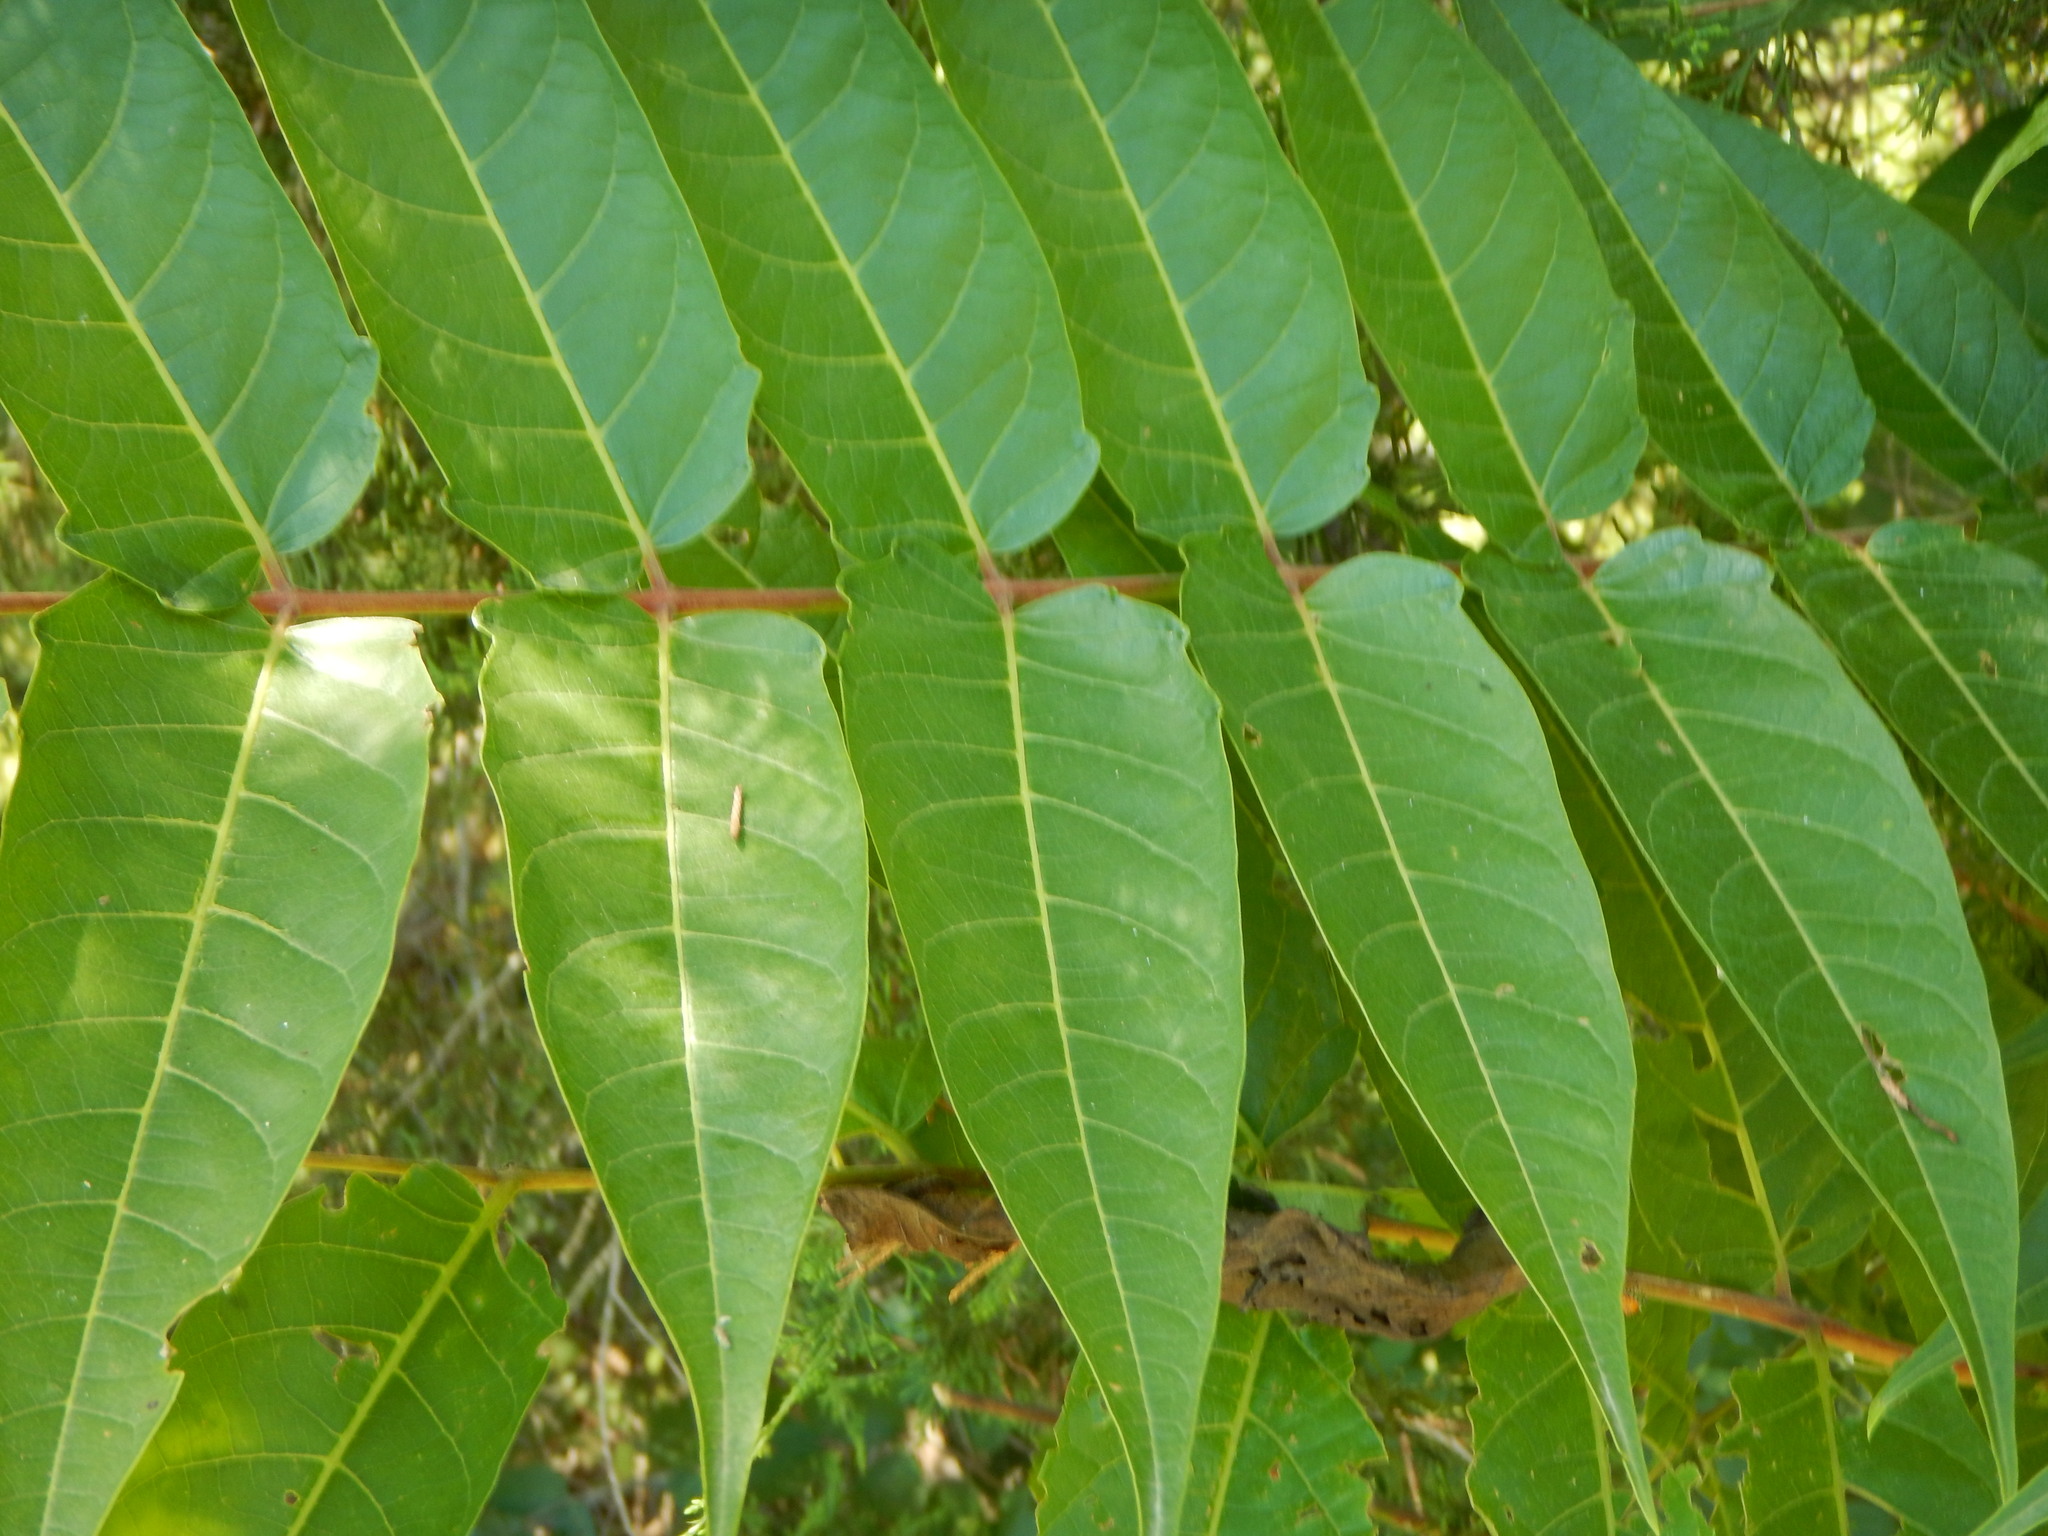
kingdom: Plantae
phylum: Tracheophyta
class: Magnoliopsida
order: Sapindales
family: Simaroubaceae
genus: Ailanthus
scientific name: Ailanthus altissima
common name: Tree-of-heaven
